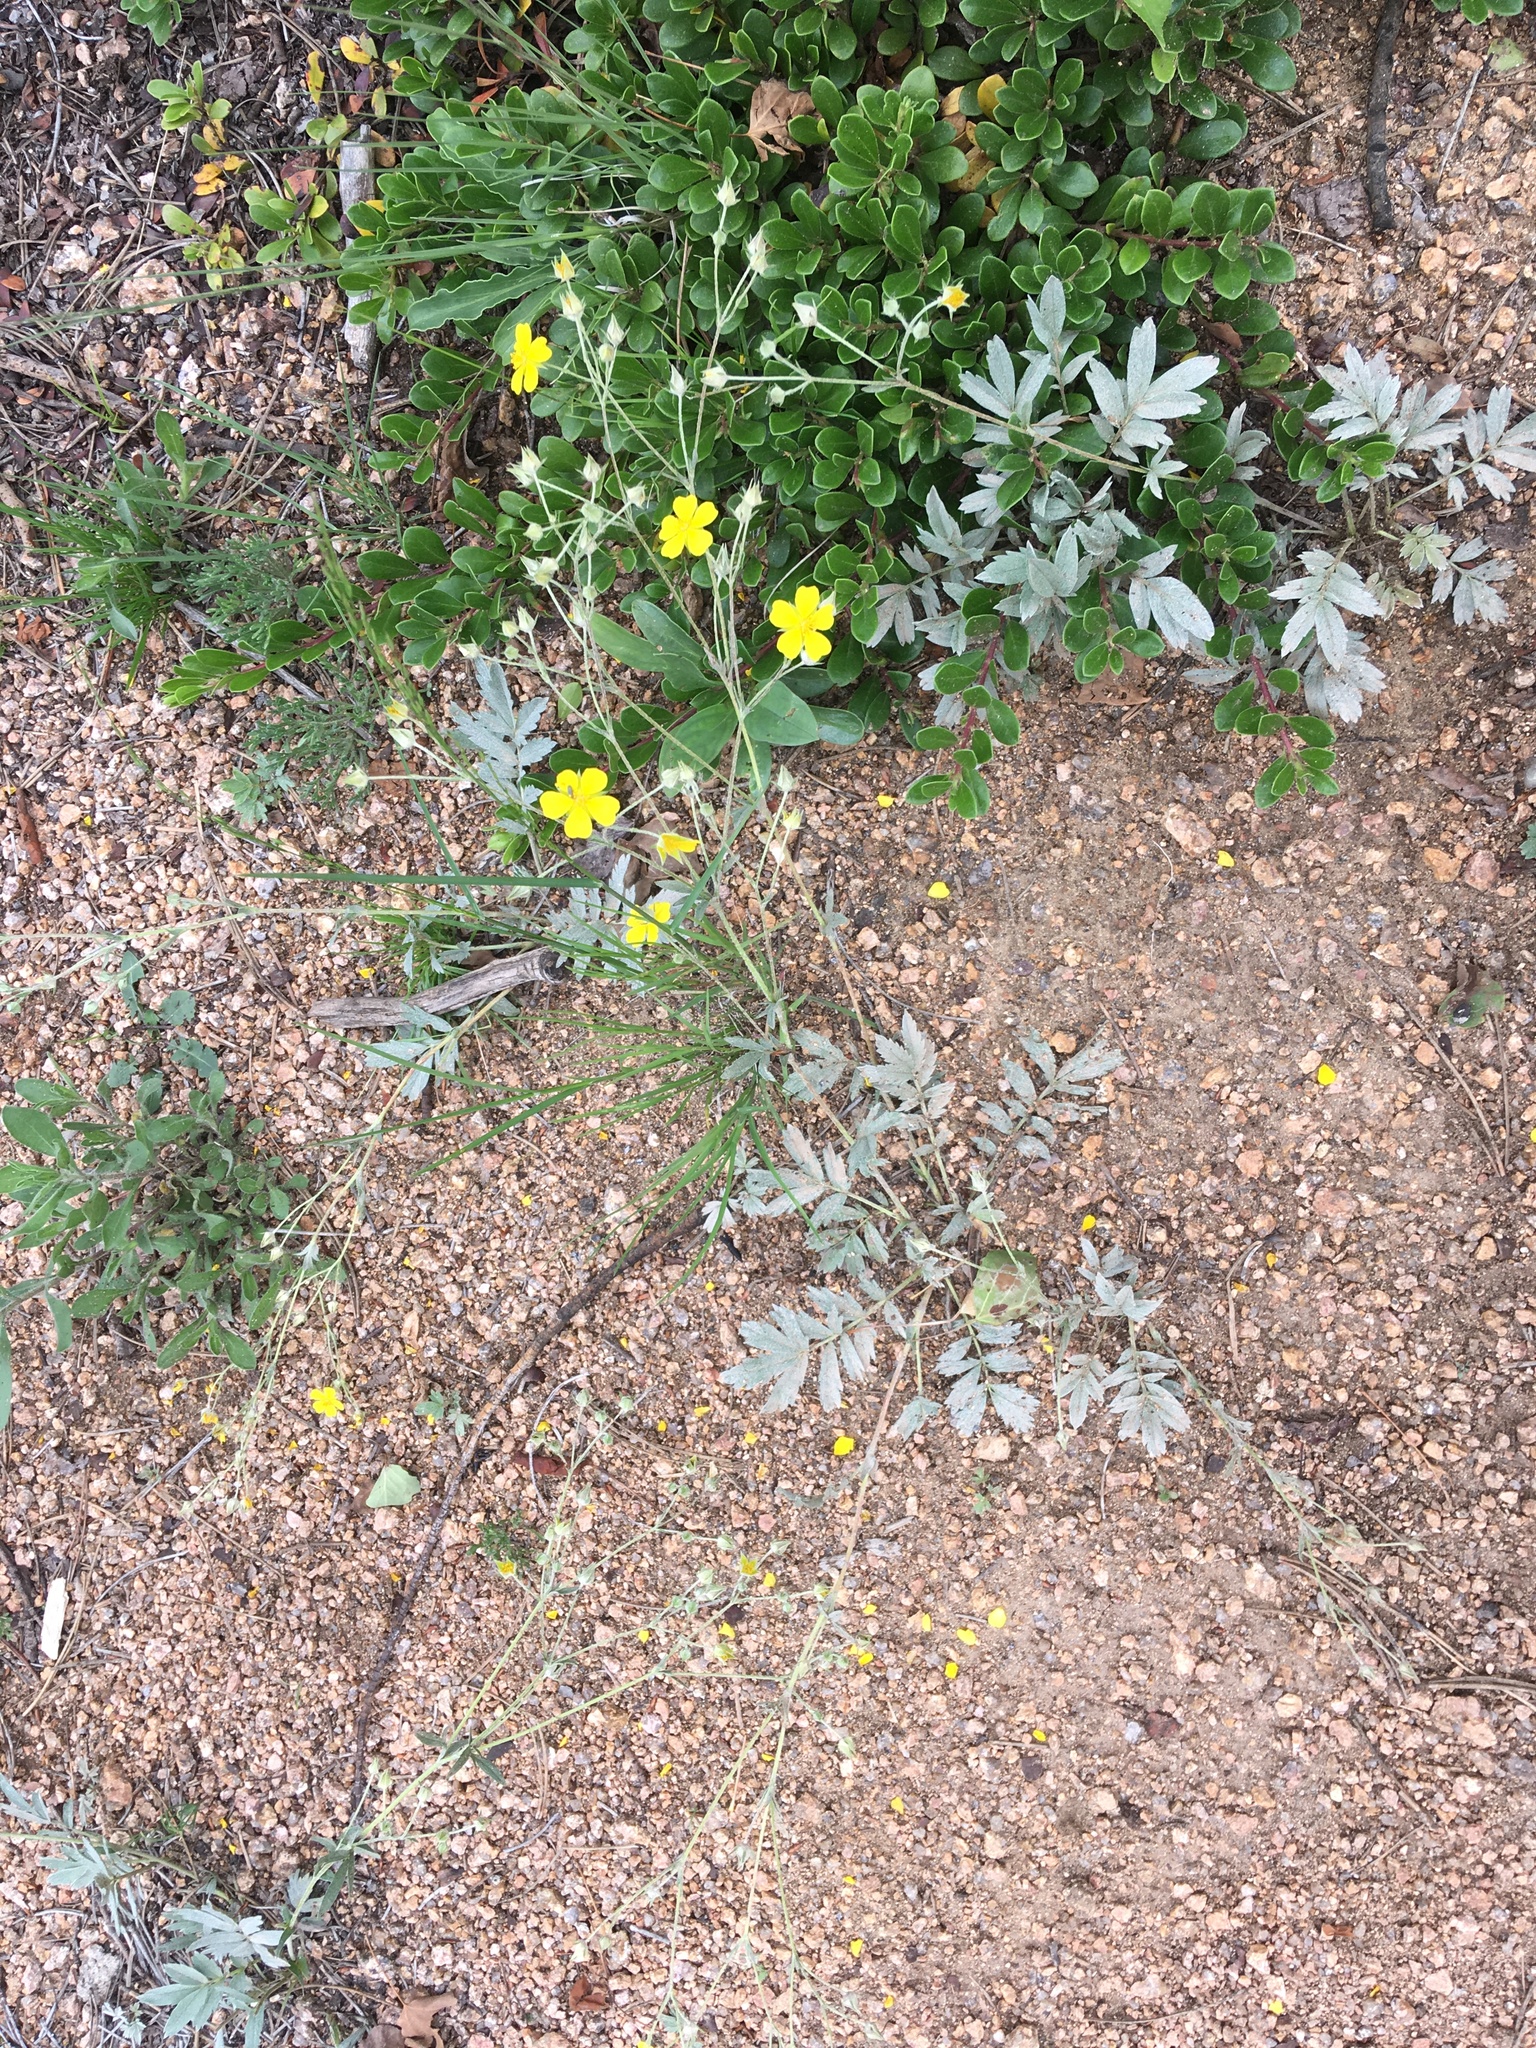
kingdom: Plantae
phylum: Tracheophyta
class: Magnoliopsida
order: Rosales
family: Rosaceae
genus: Potentilla
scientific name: Potentilla hippiana
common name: Woolly cinquefoil
